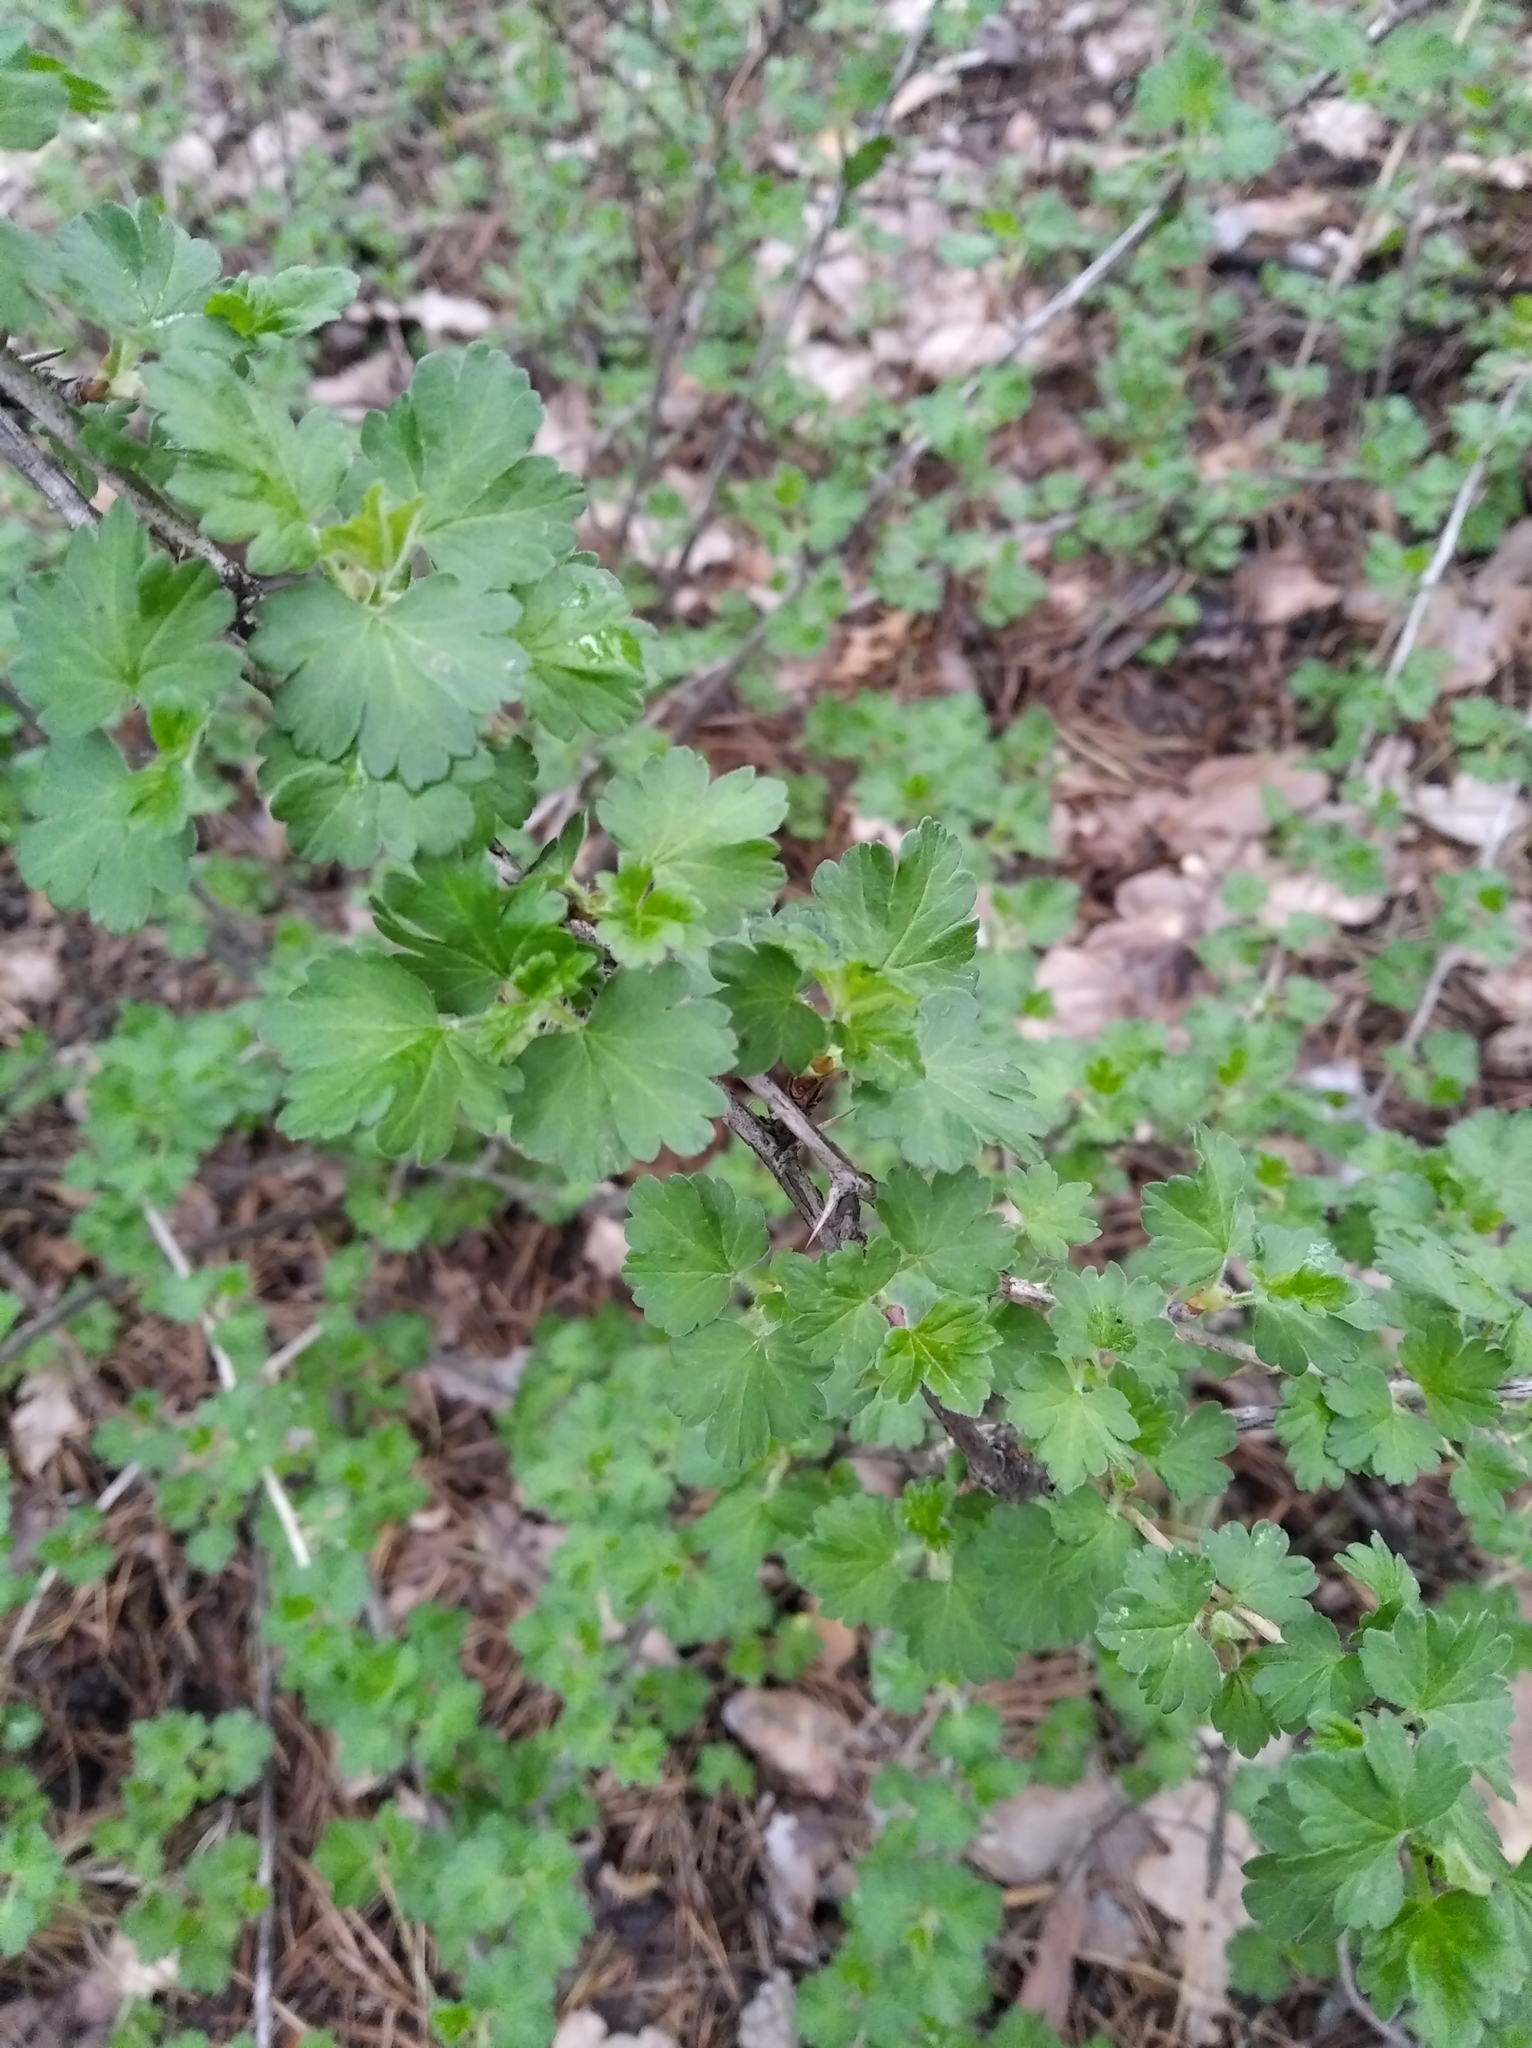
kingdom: Plantae
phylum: Tracheophyta
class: Magnoliopsida
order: Saxifragales
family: Grossulariaceae
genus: Ribes
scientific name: Ribes uva-crispa
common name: Gooseberry
